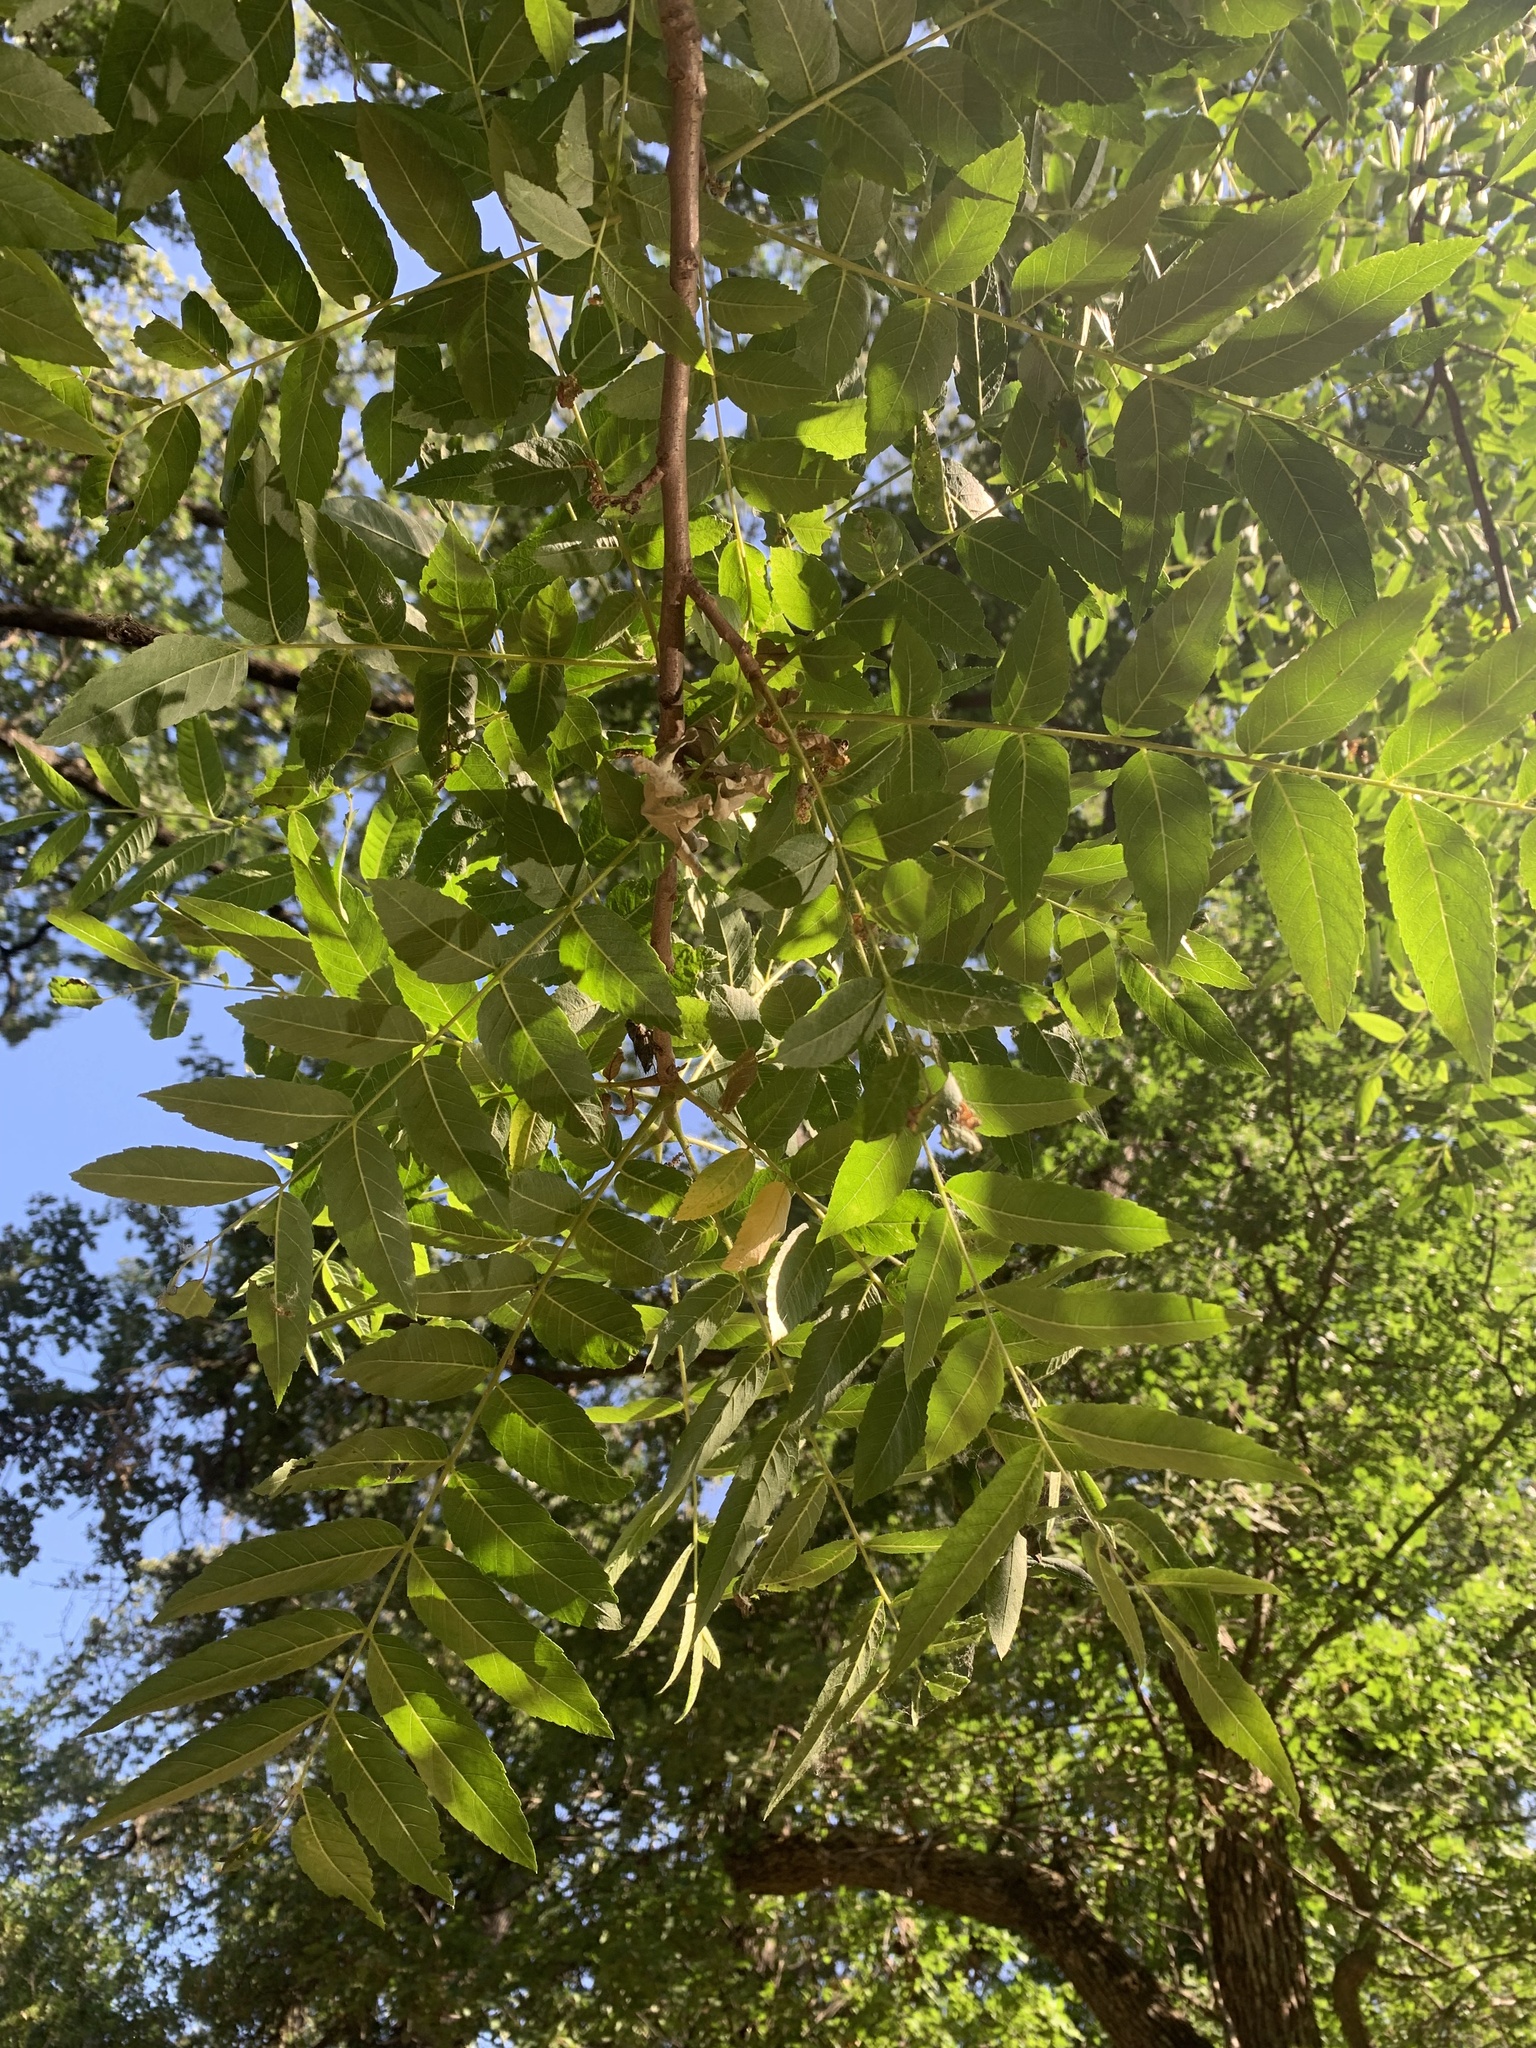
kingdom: Plantae
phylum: Tracheophyta
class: Magnoliopsida
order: Fagales
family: Juglandaceae
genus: Juglans
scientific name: Juglans hindsii
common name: Northern california black walnut
